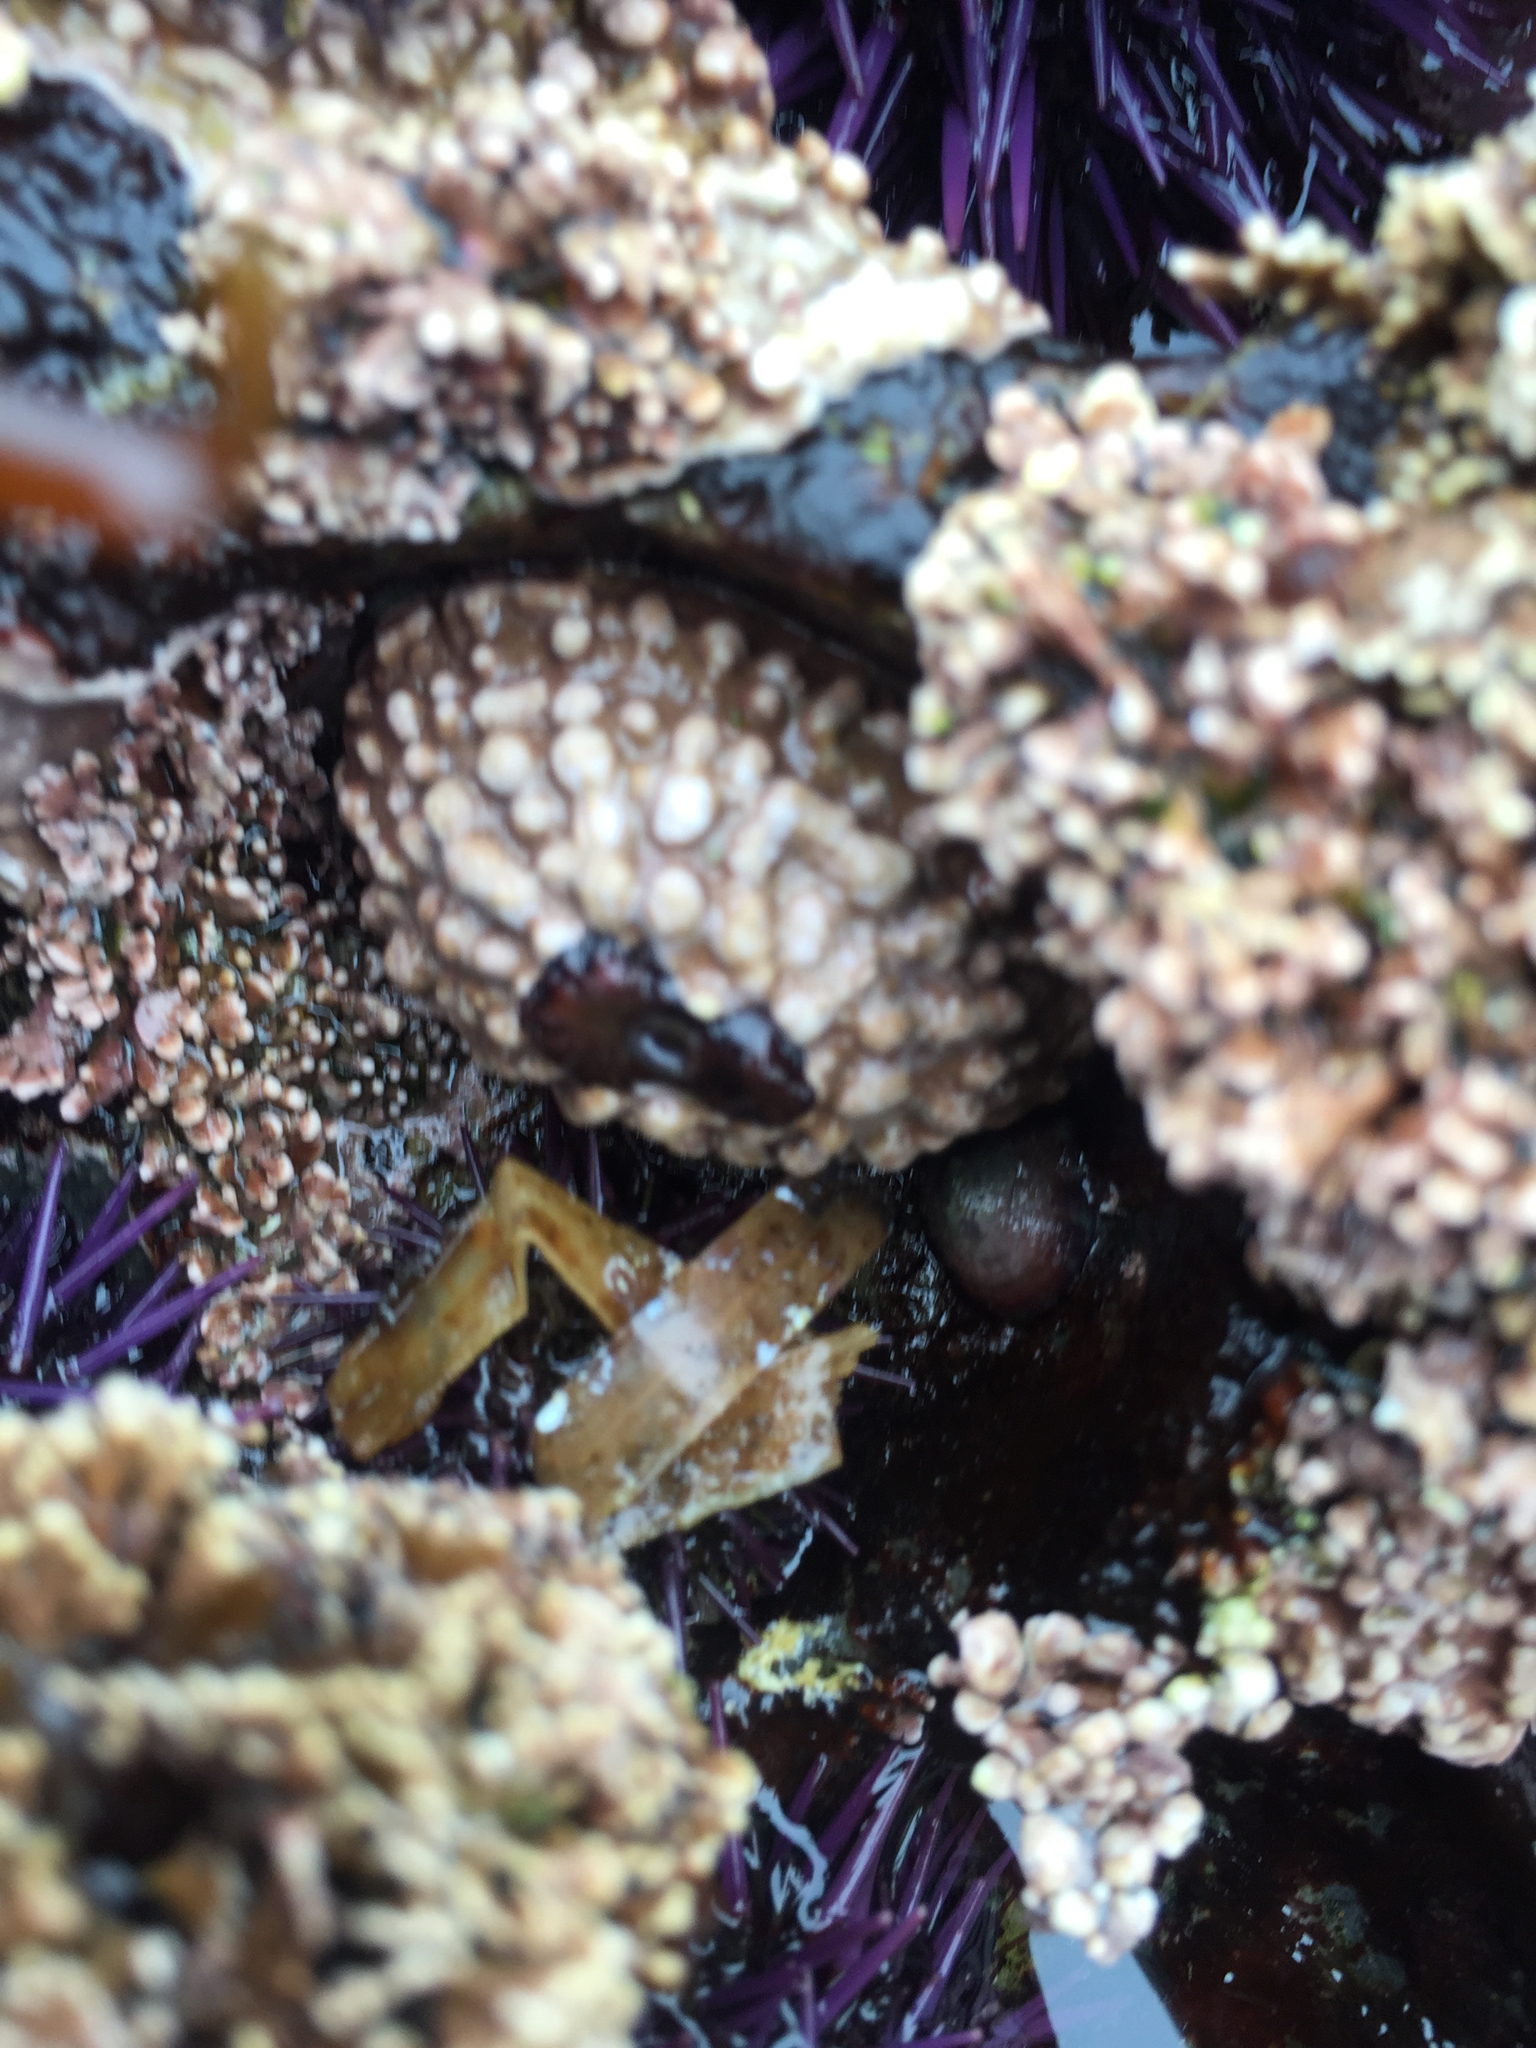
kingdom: Animalia
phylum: Mollusca
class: Gastropoda
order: Lepetellida
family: Fissurellidae
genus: Fissurella
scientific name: Fissurella volcano
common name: Volcano keyhole limpet
